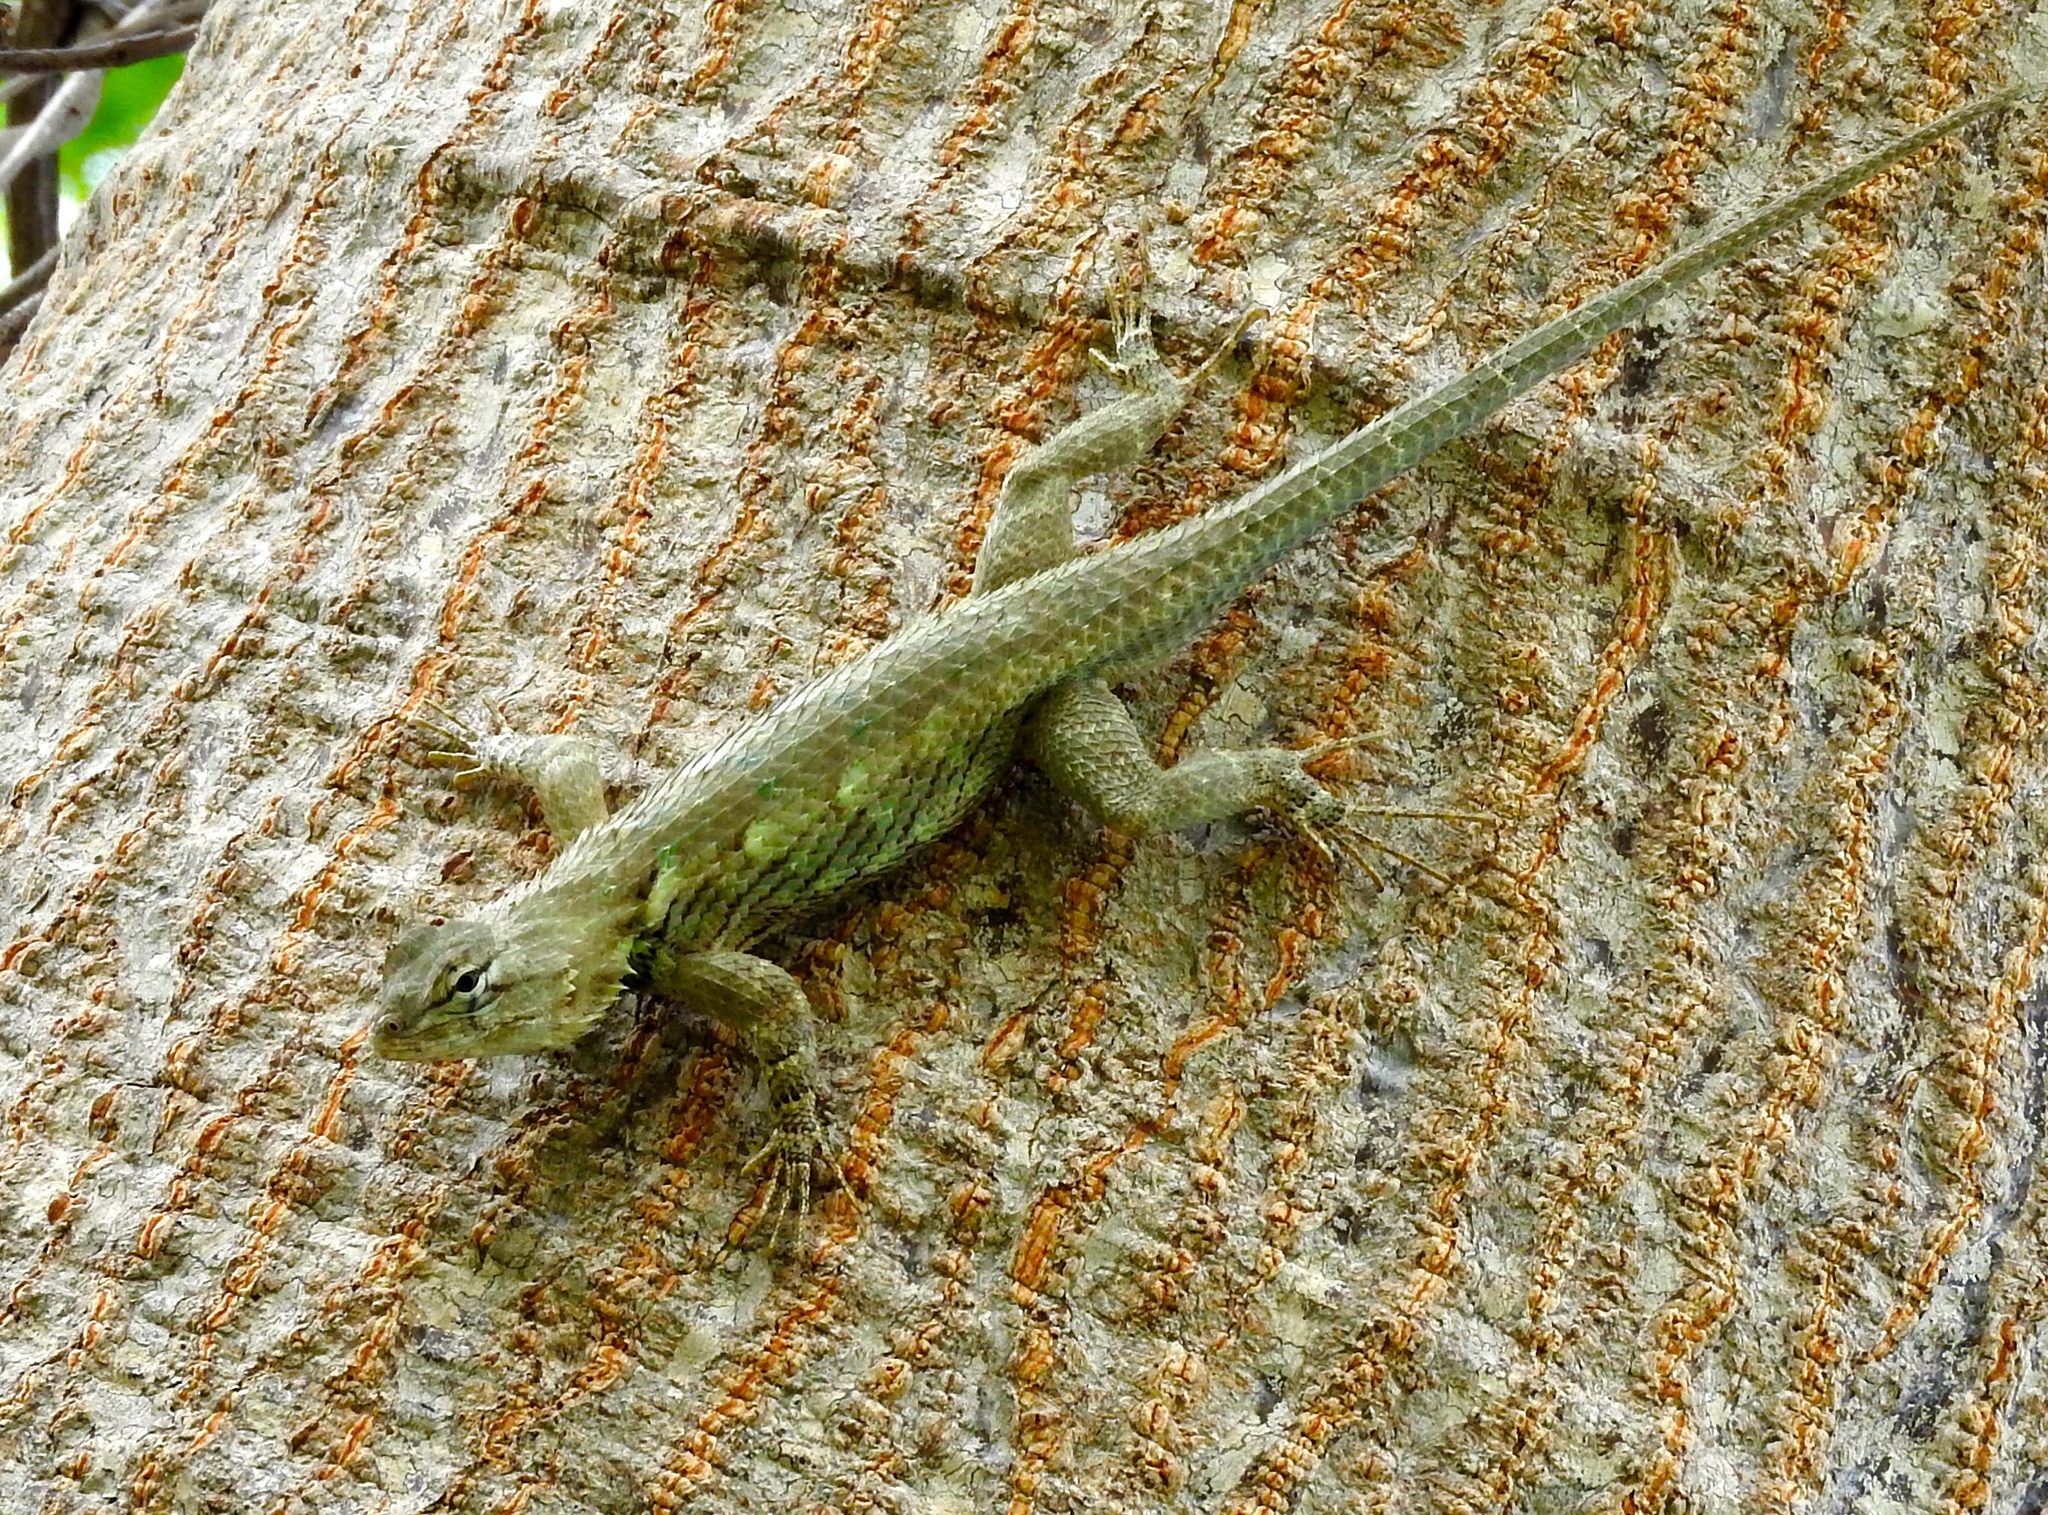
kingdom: Animalia
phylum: Chordata
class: Squamata
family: Phrynosomatidae
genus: Sceloporus
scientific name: Sceloporus clarkii
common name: Clark's spiny lizard
